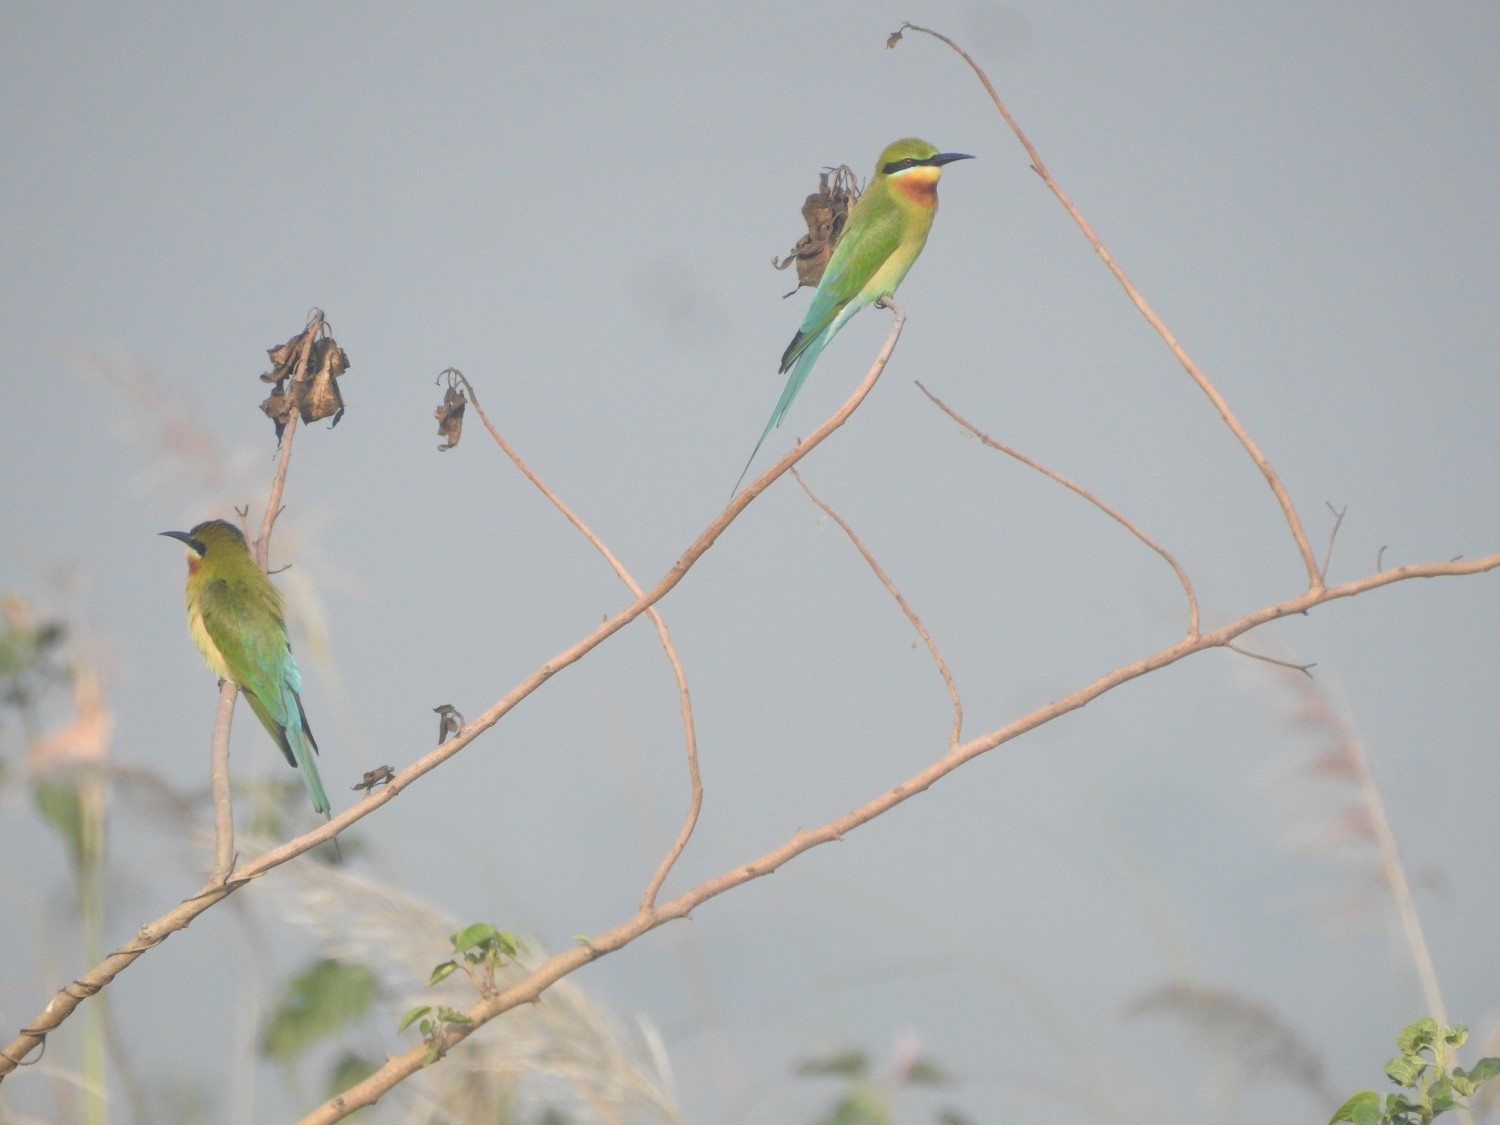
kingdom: Animalia
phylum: Chordata
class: Aves
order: Coraciiformes
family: Meropidae
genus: Merops
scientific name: Merops philippinus
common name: Blue-tailed bee-eater
